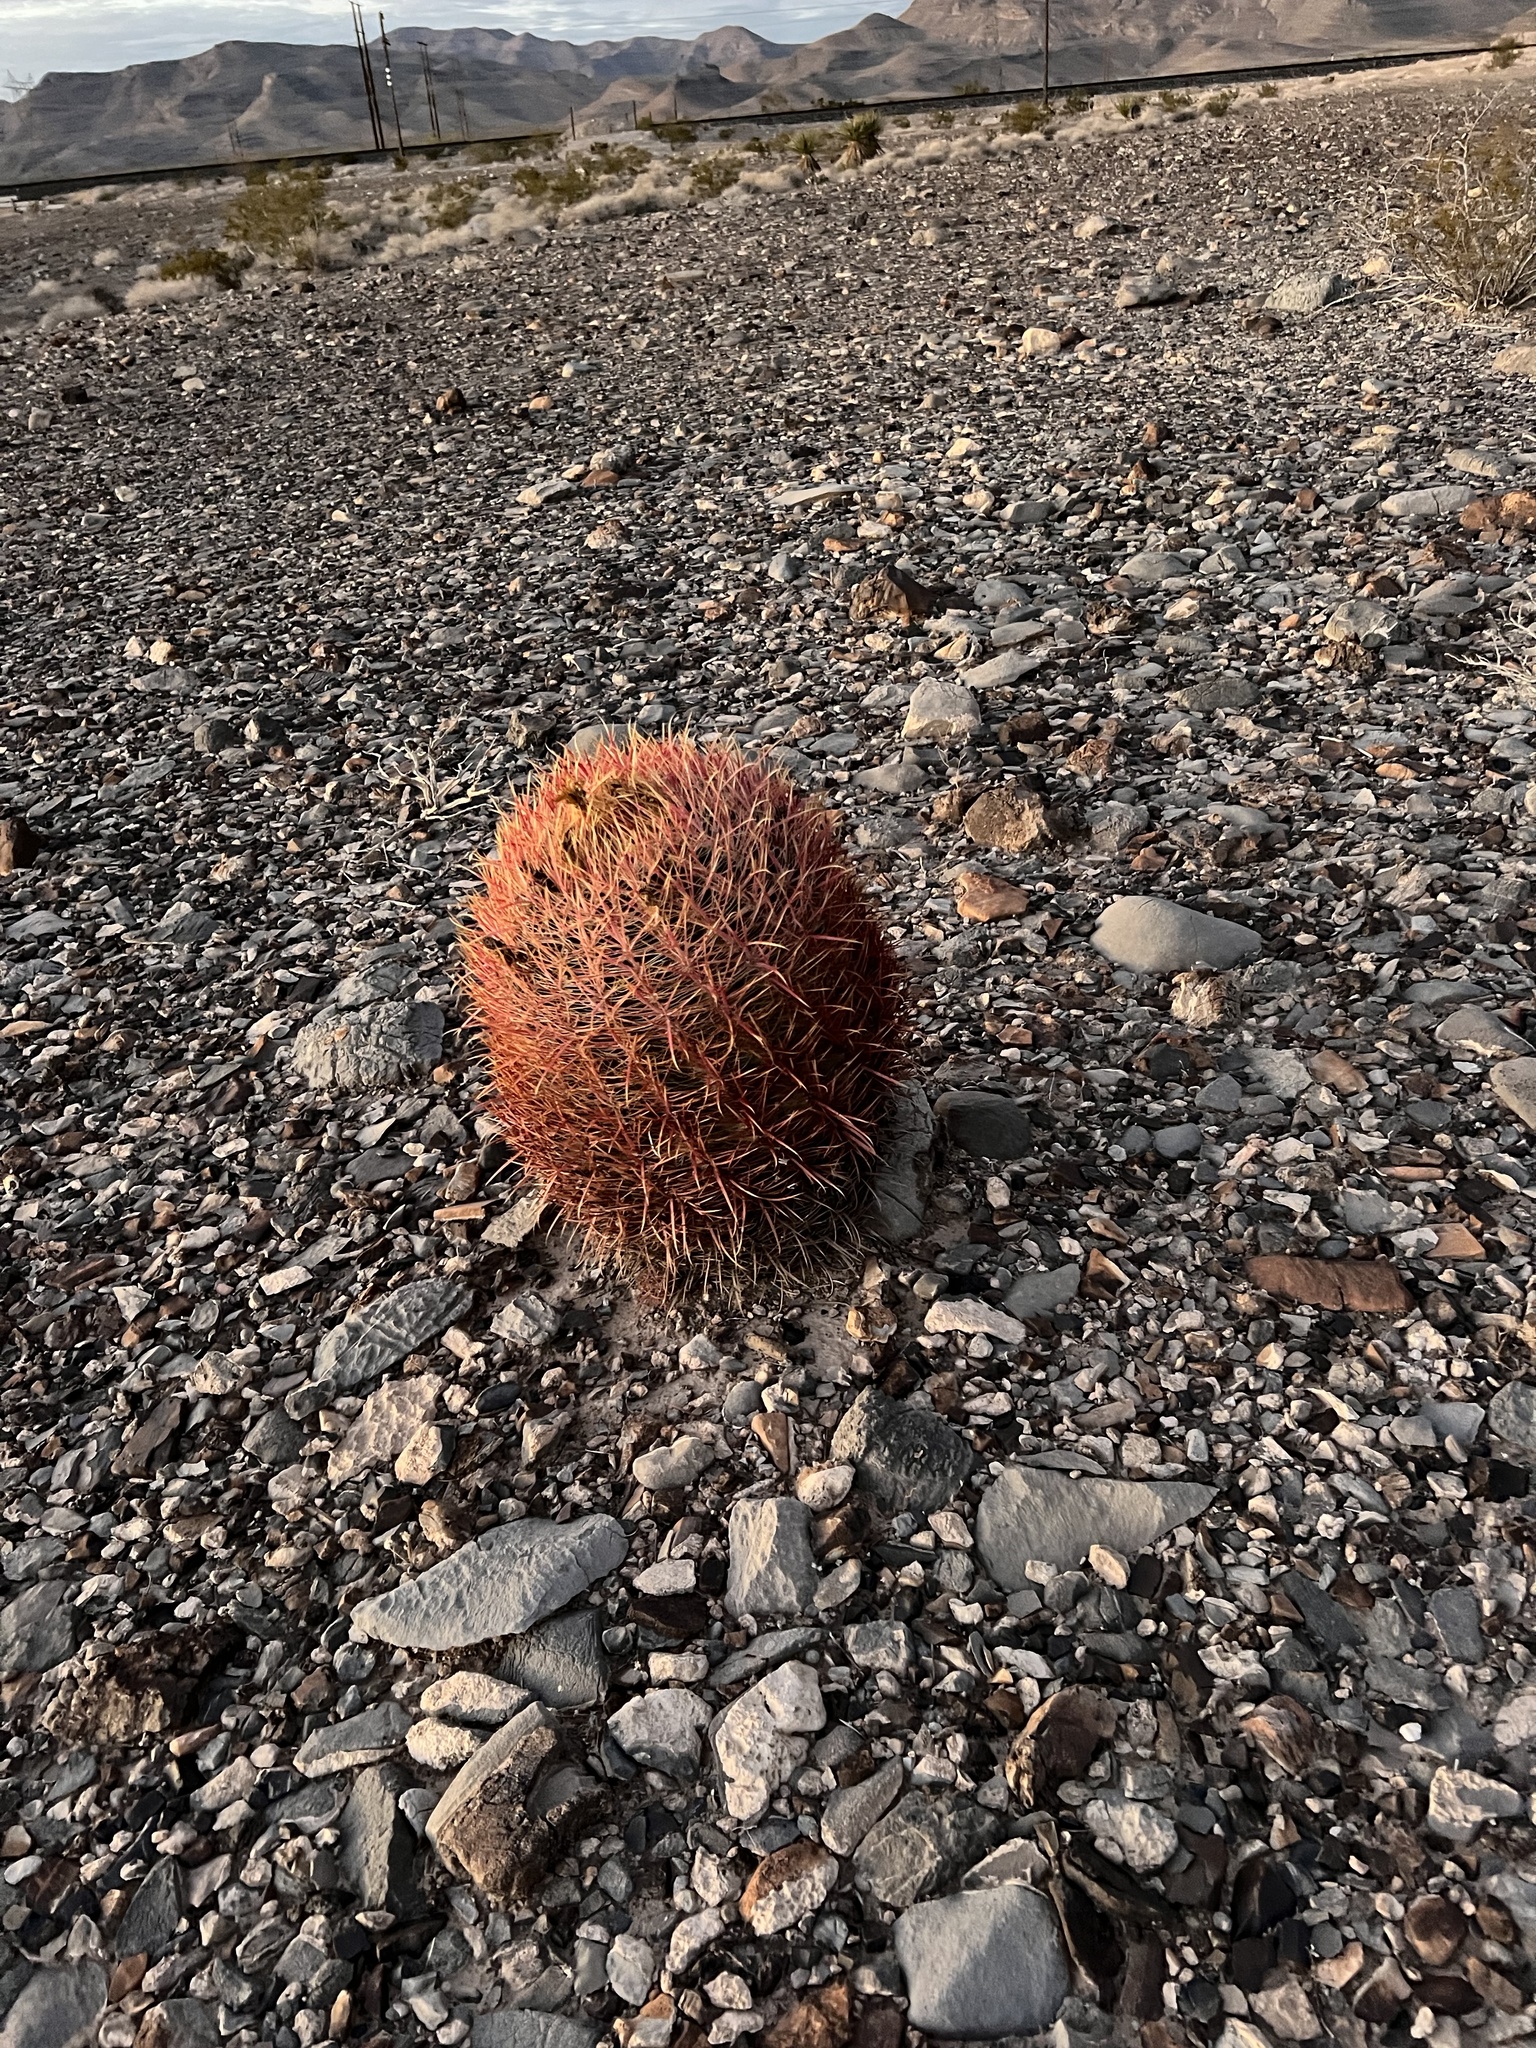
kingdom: Plantae
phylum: Tracheophyta
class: Magnoliopsida
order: Caryophyllales
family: Cactaceae
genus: Ferocactus
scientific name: Ferocactus cylindraceus
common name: California barrel cactus
